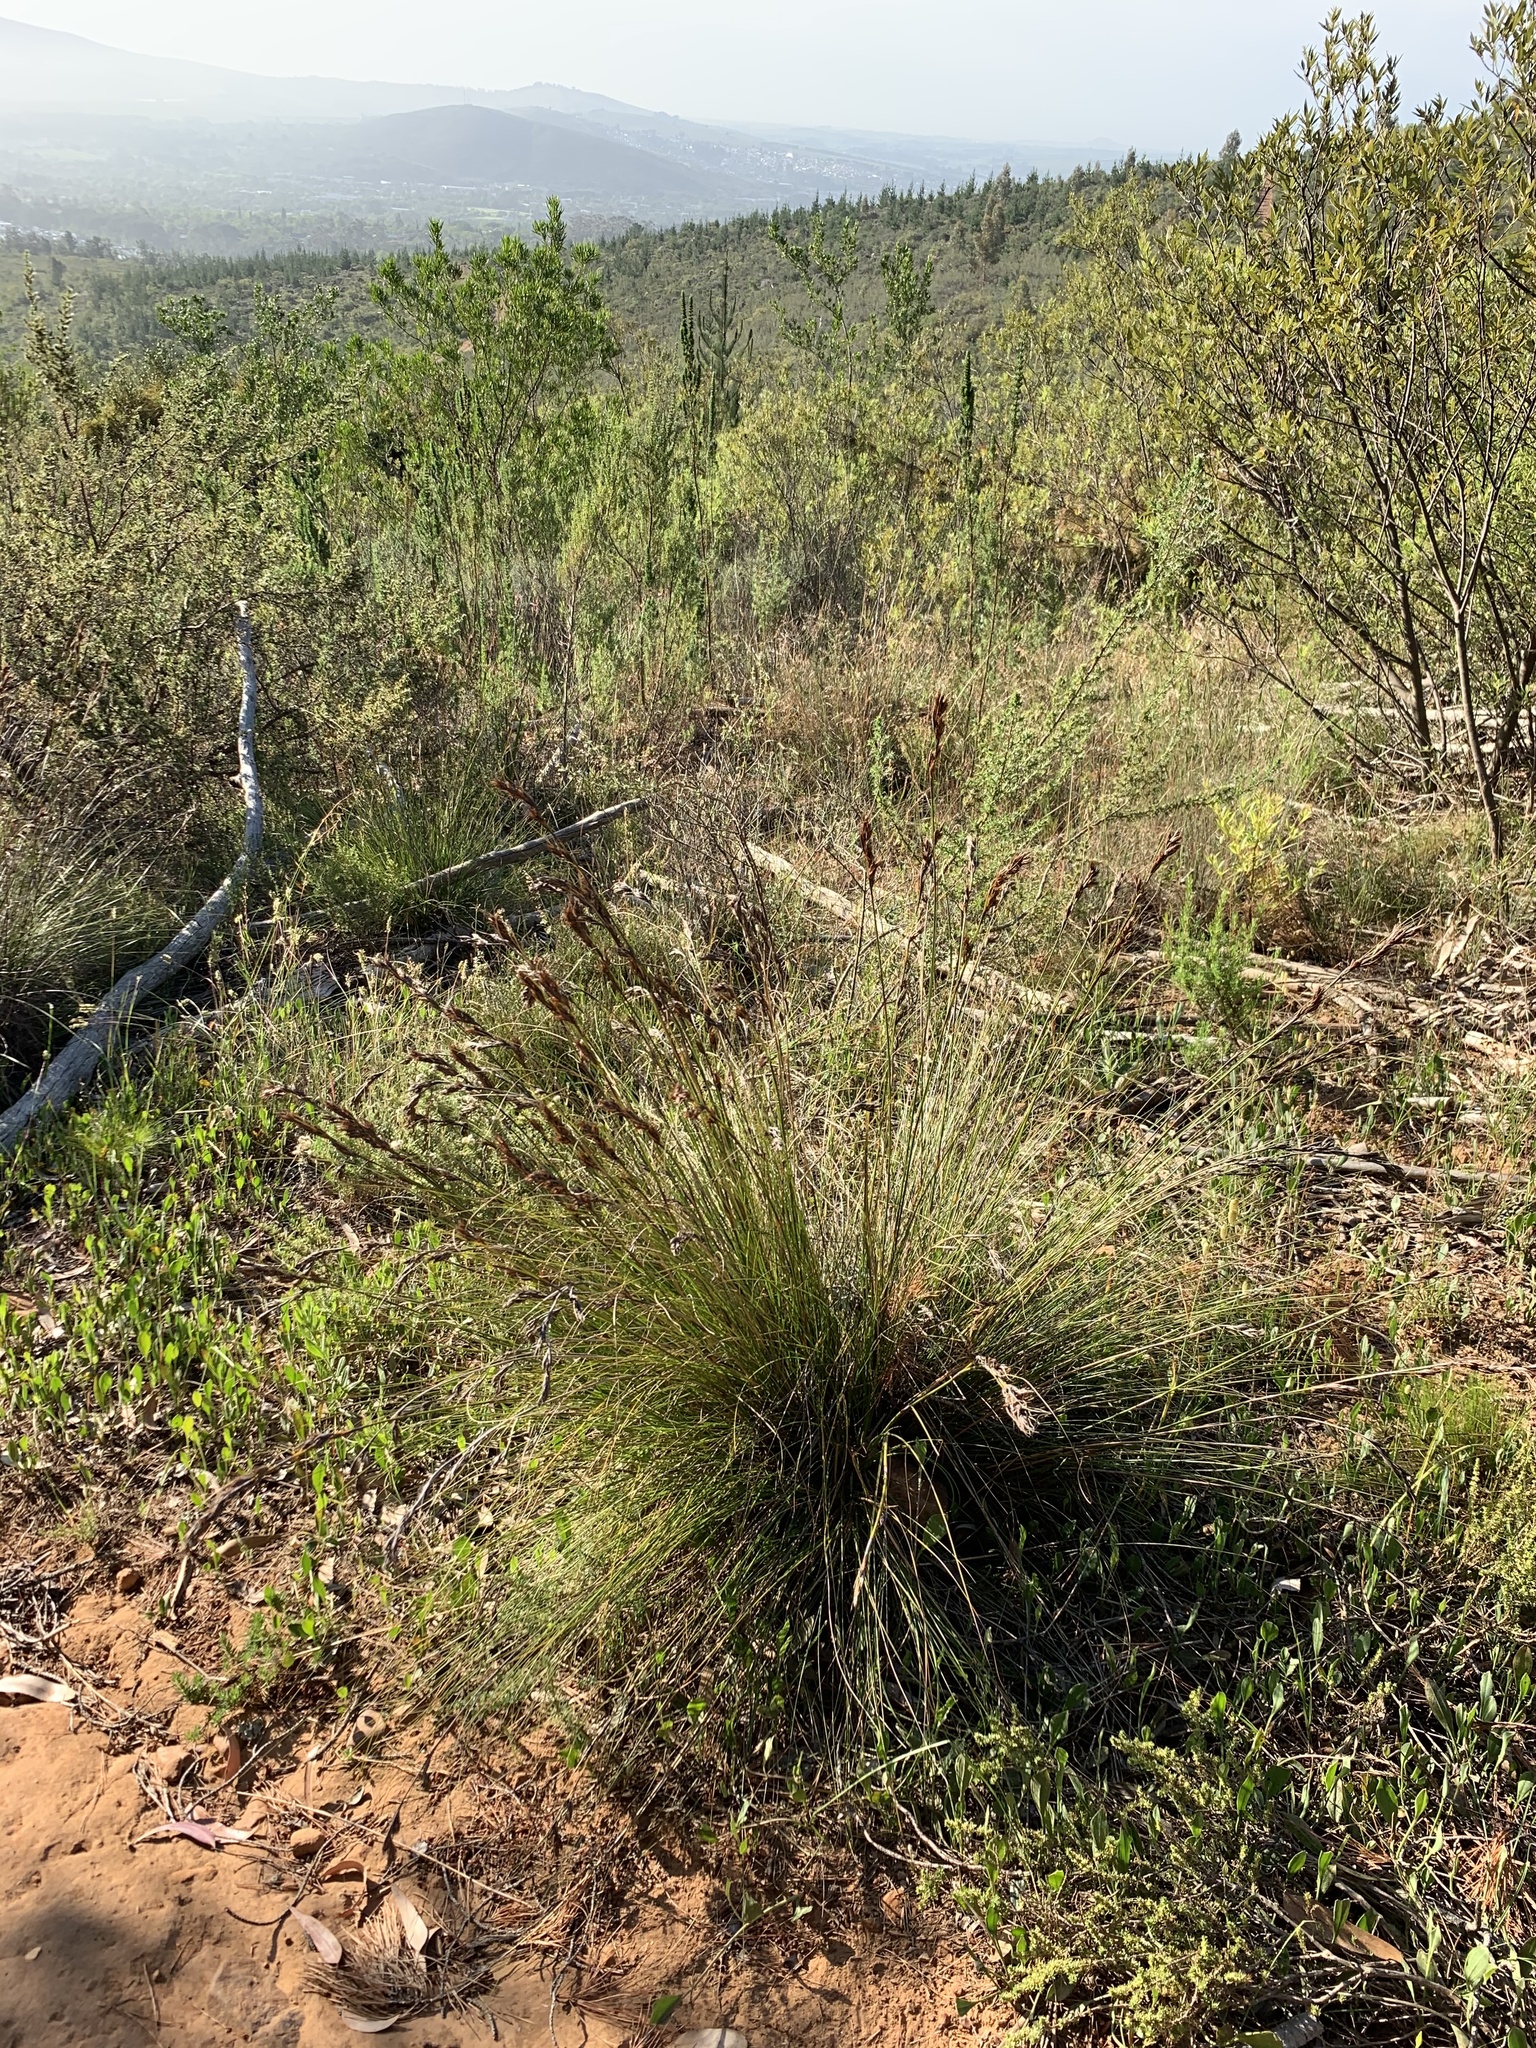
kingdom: Plantae
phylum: Tracheophyta
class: Liliopsida
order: Poales
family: Cyperaceae
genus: Tetraria
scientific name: Tetraria ustulata
